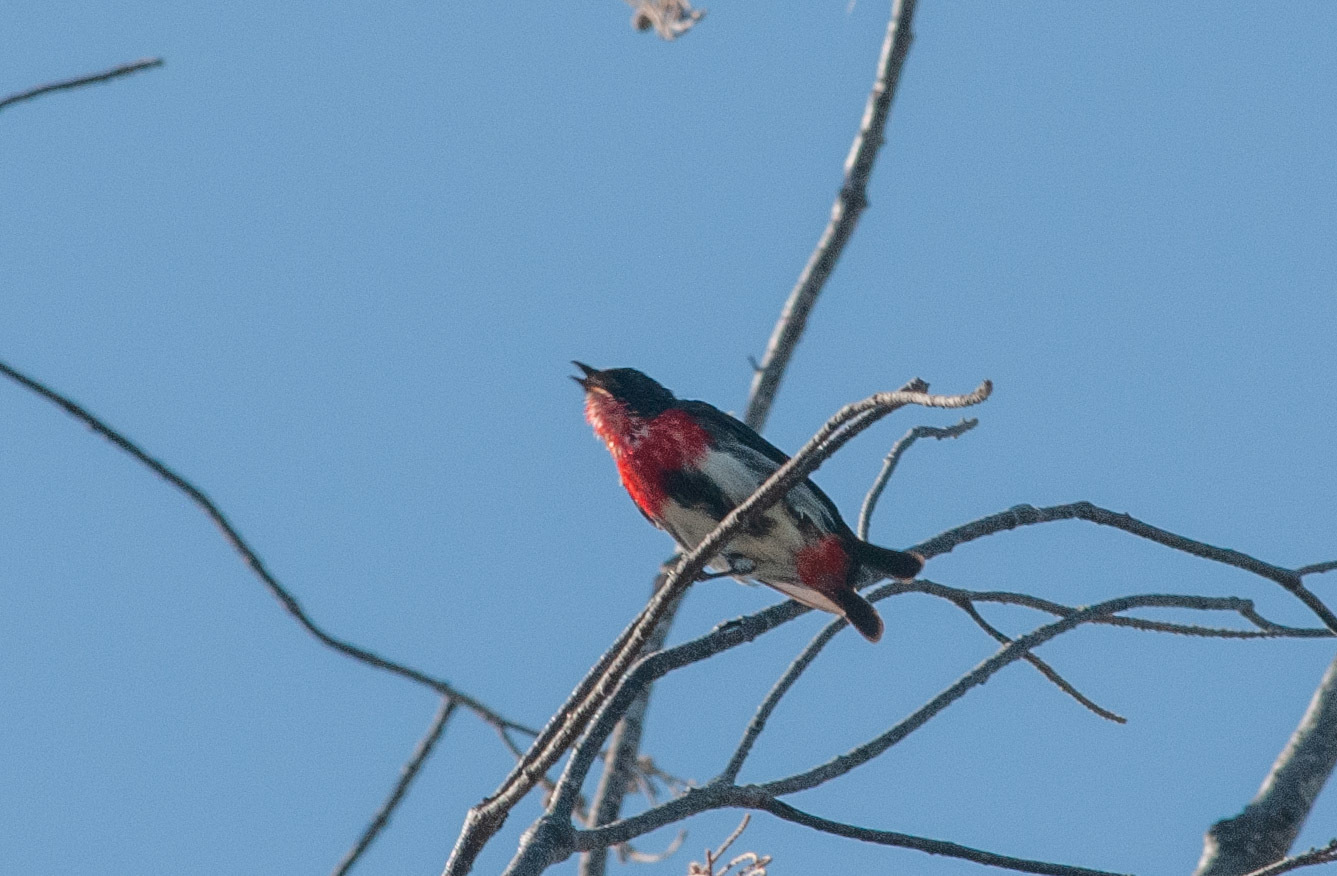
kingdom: Animalia
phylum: Chordata
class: Aves
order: Passeriformes
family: Dicaeidae
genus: Dicaeum
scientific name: Dicaeum hirundinaceum
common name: Mistletoebird
